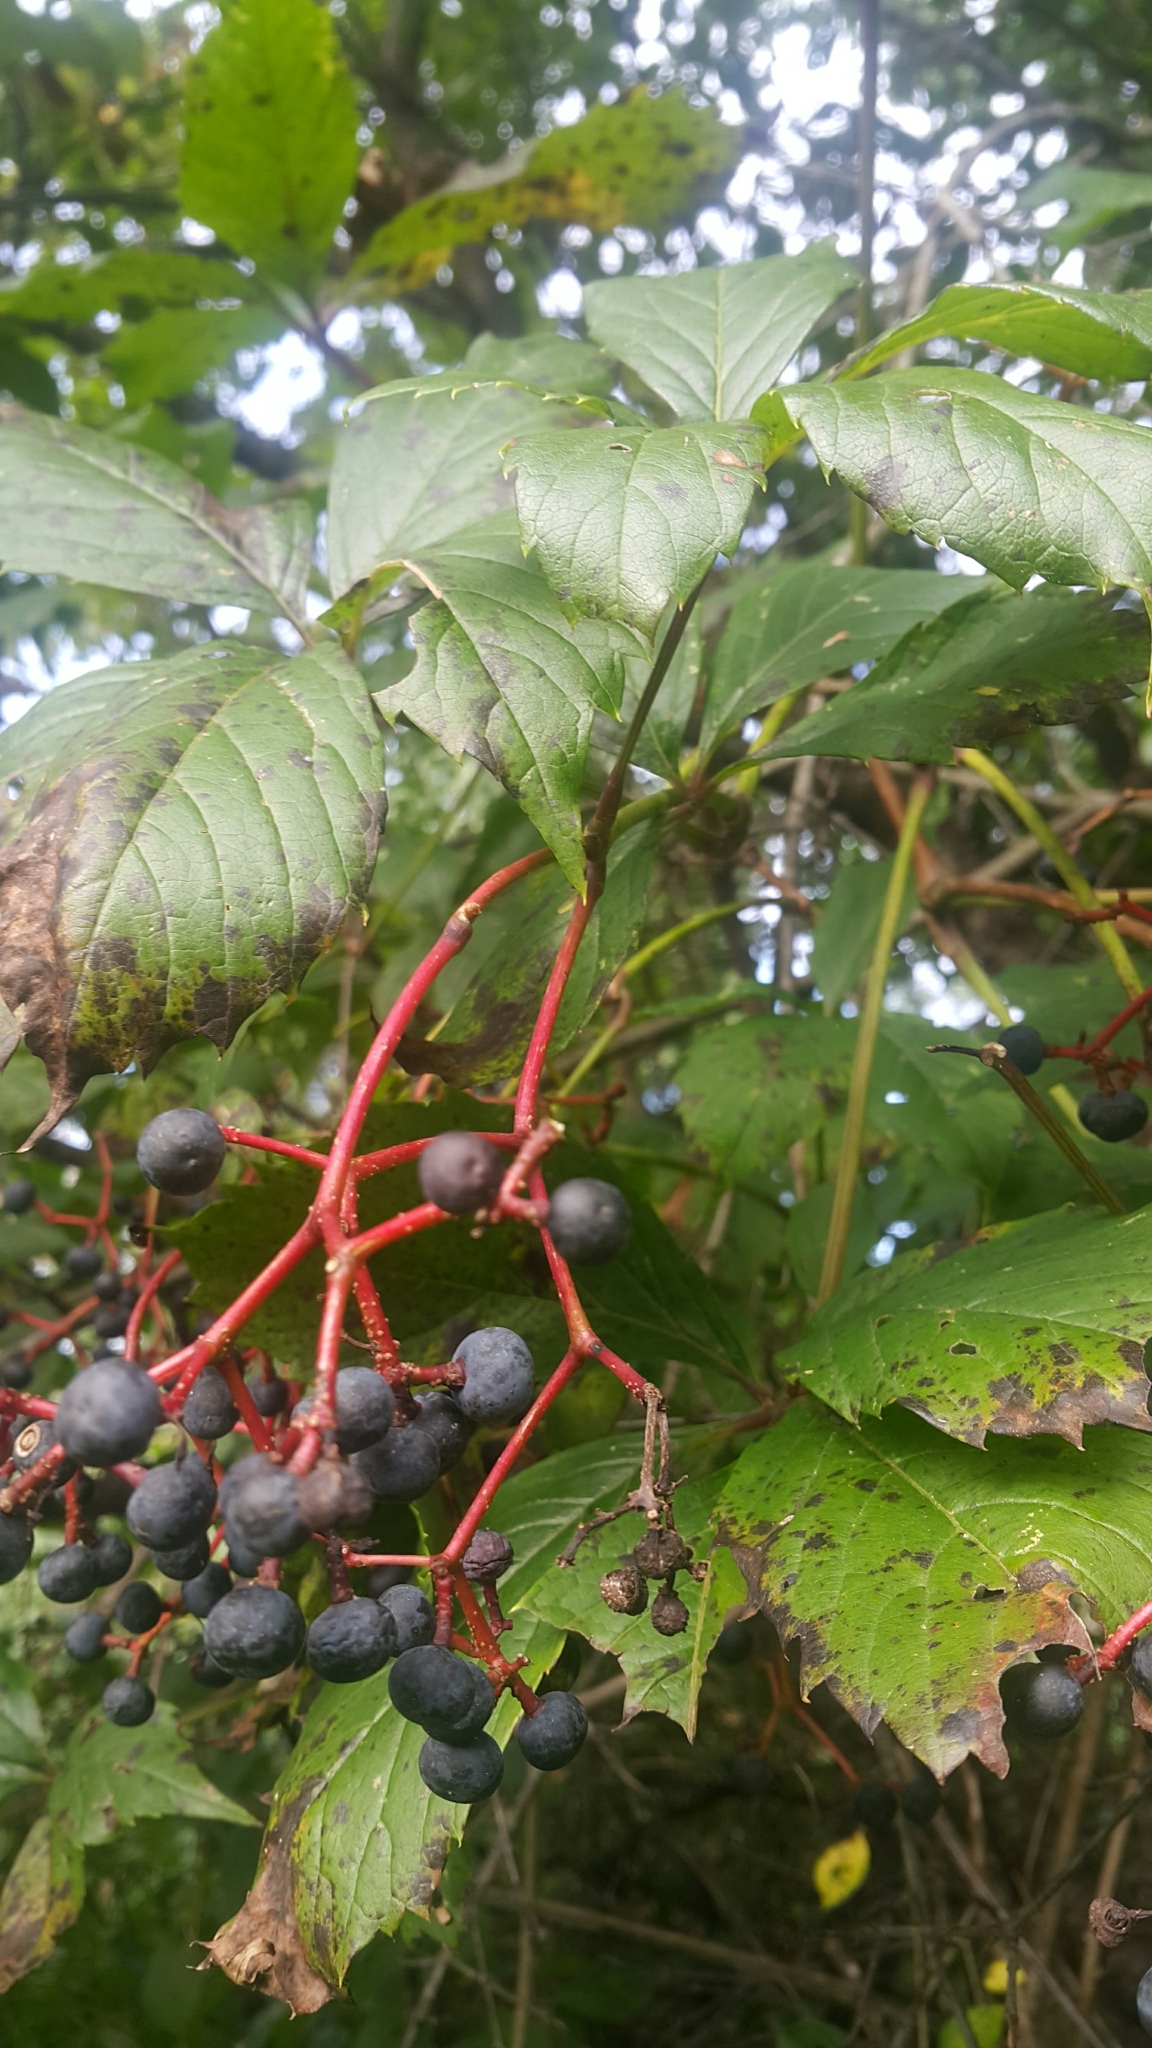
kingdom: Plantae
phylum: Tracheophyta
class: Magnoliopsida
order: Vitales
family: Vitaceae
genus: Vitis
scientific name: Vitis riparia
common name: Frost grape
